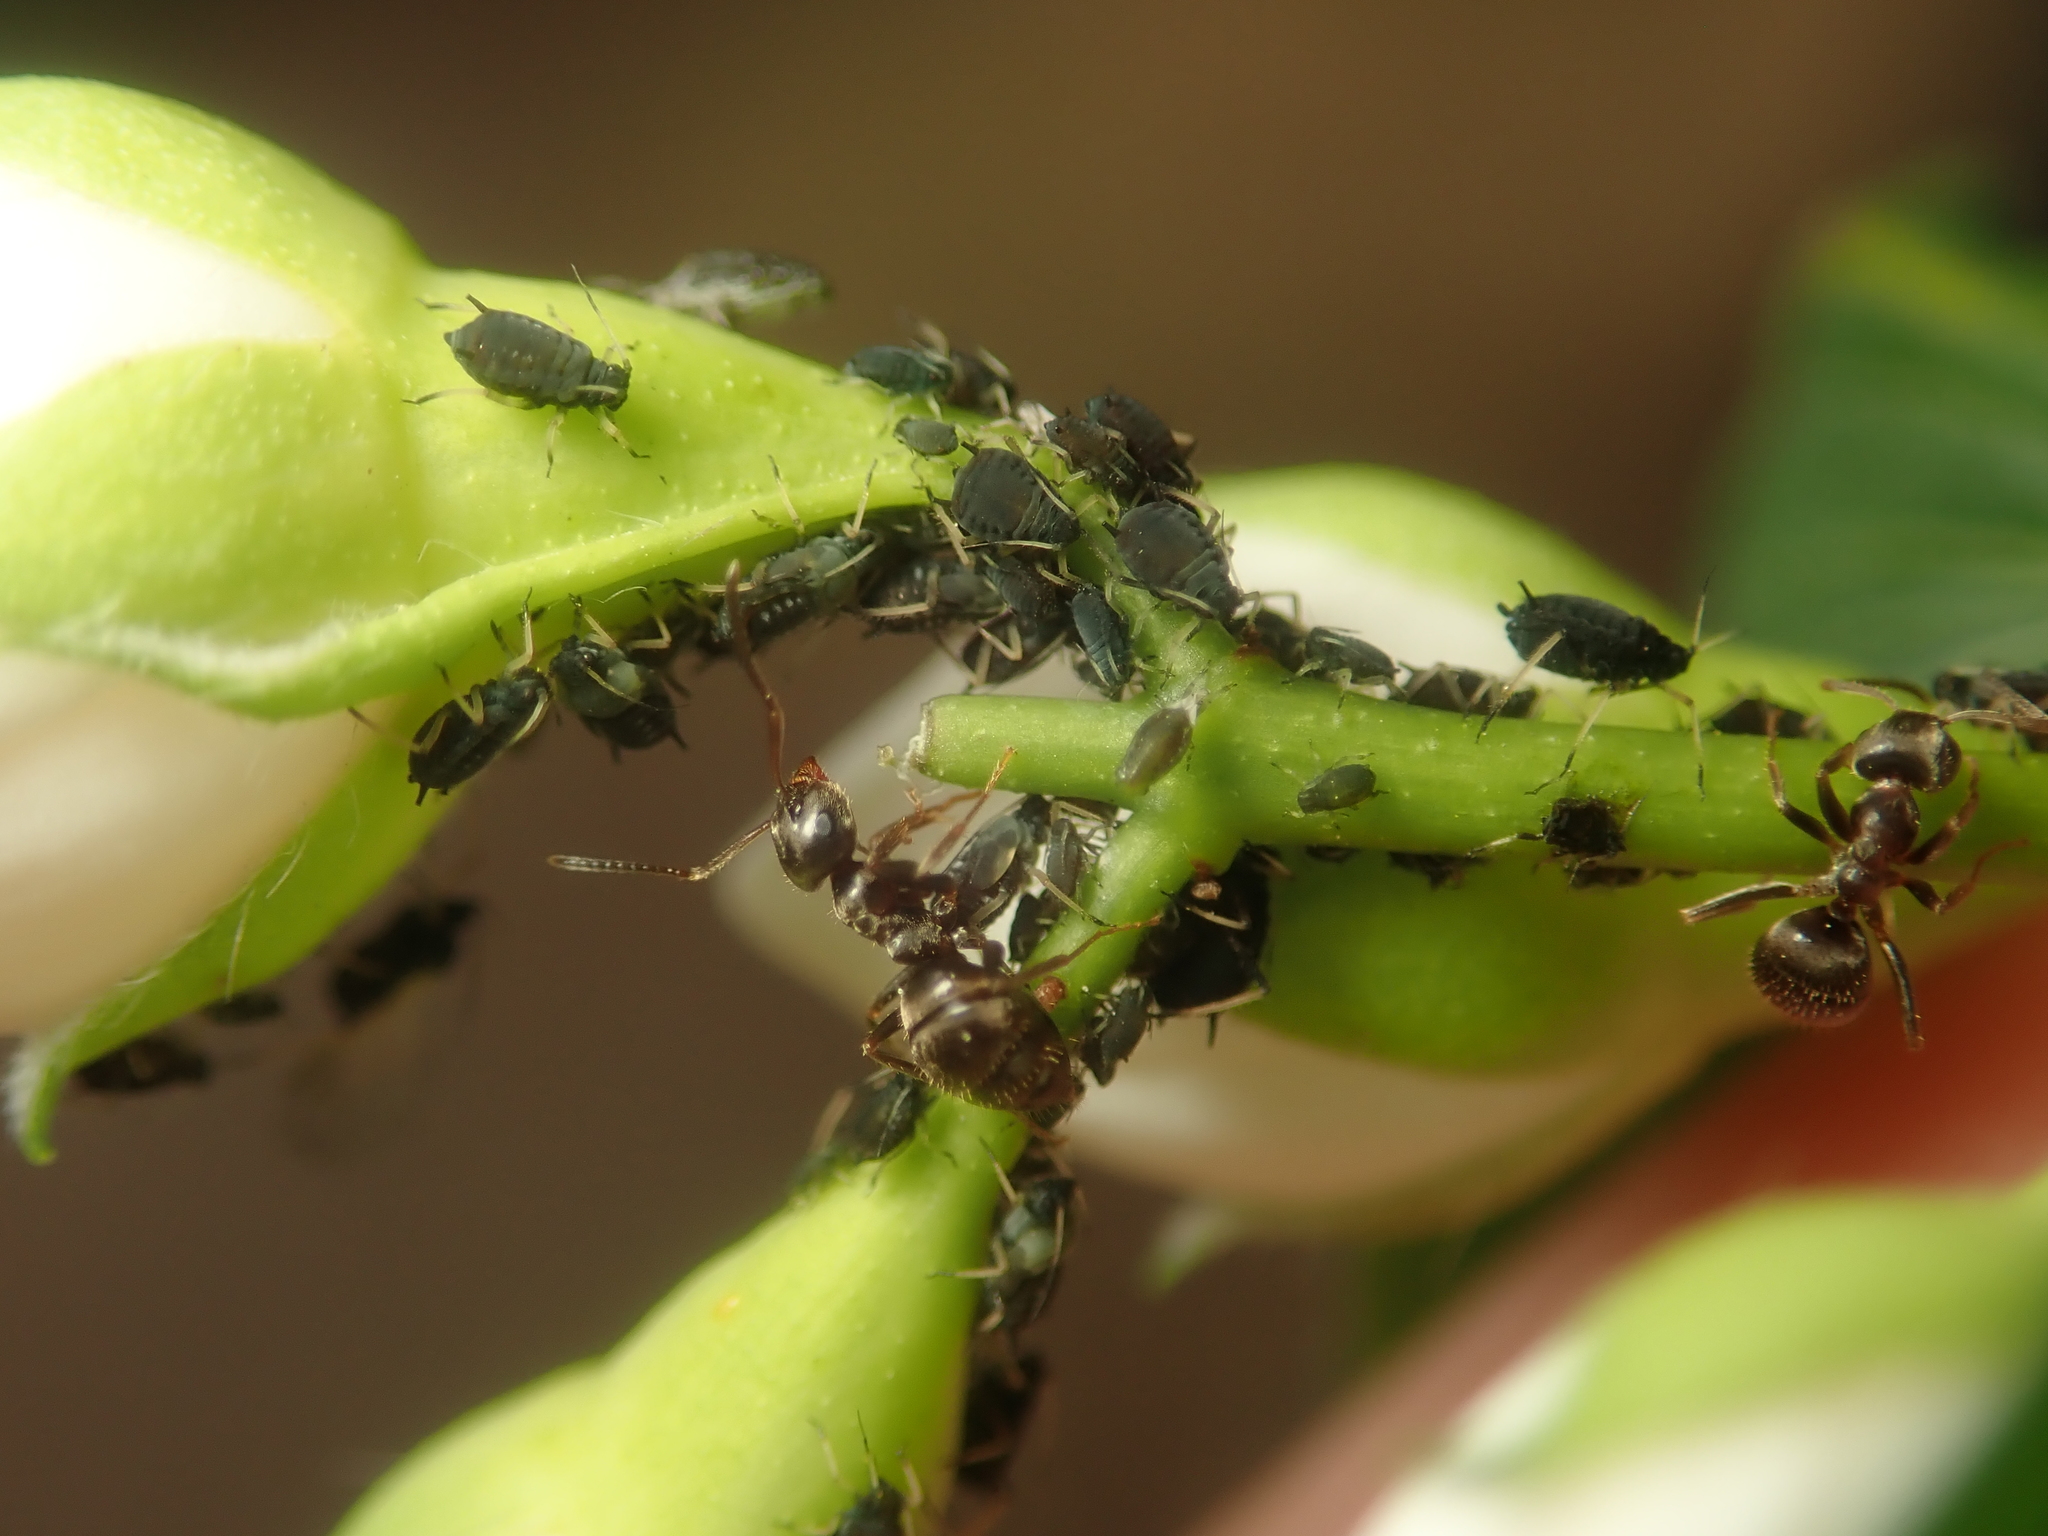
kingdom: Animalia
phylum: Arthropoda
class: Insecta
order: Hymenoptera
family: Formicidae
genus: Lasius
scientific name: Lasius niger
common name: Small black ant
